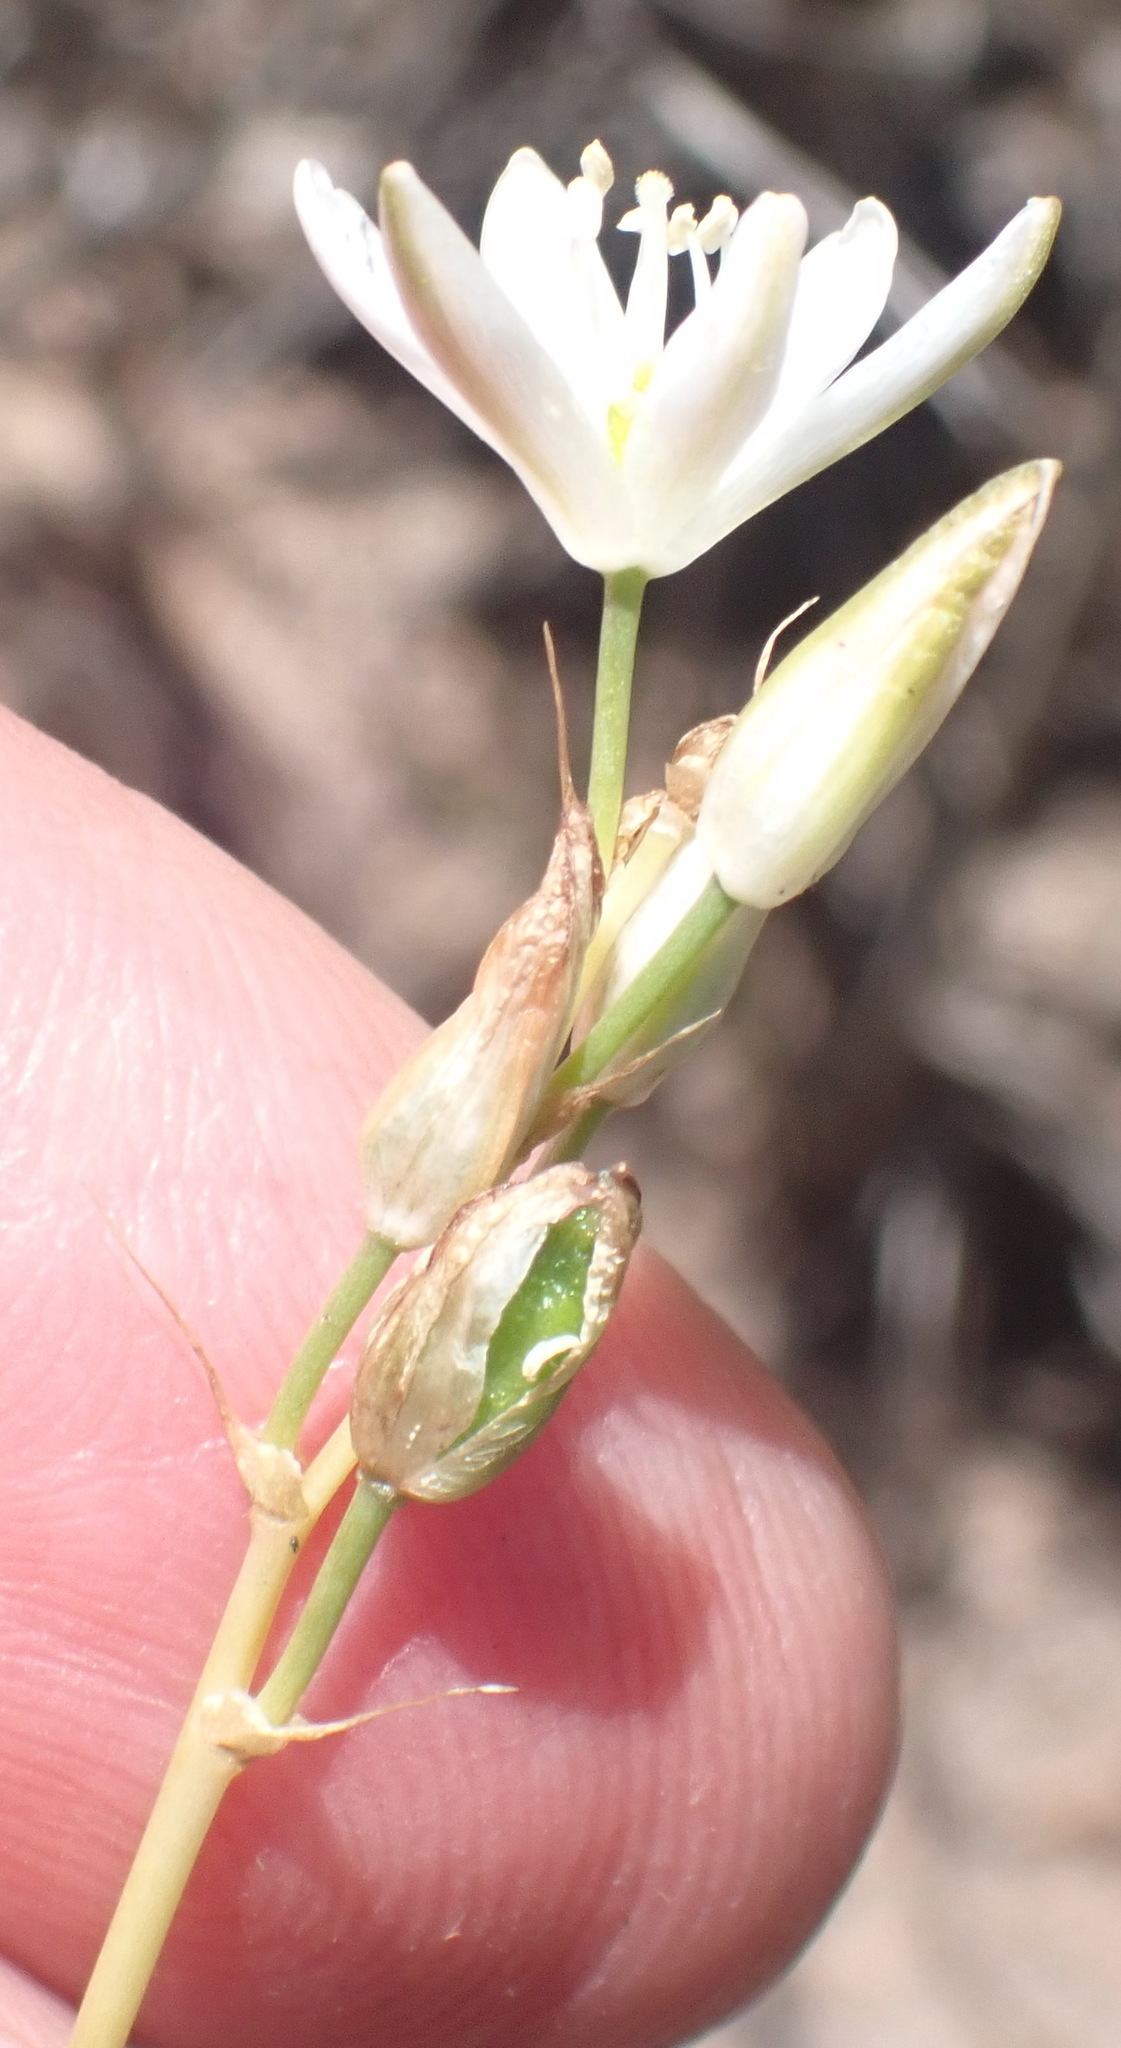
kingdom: Plantae
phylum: Tracheophyta
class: Liliopsida
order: Asparagales
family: Asparagaceae
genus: Ornithogalum
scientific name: Ornithogalum graminifolium
